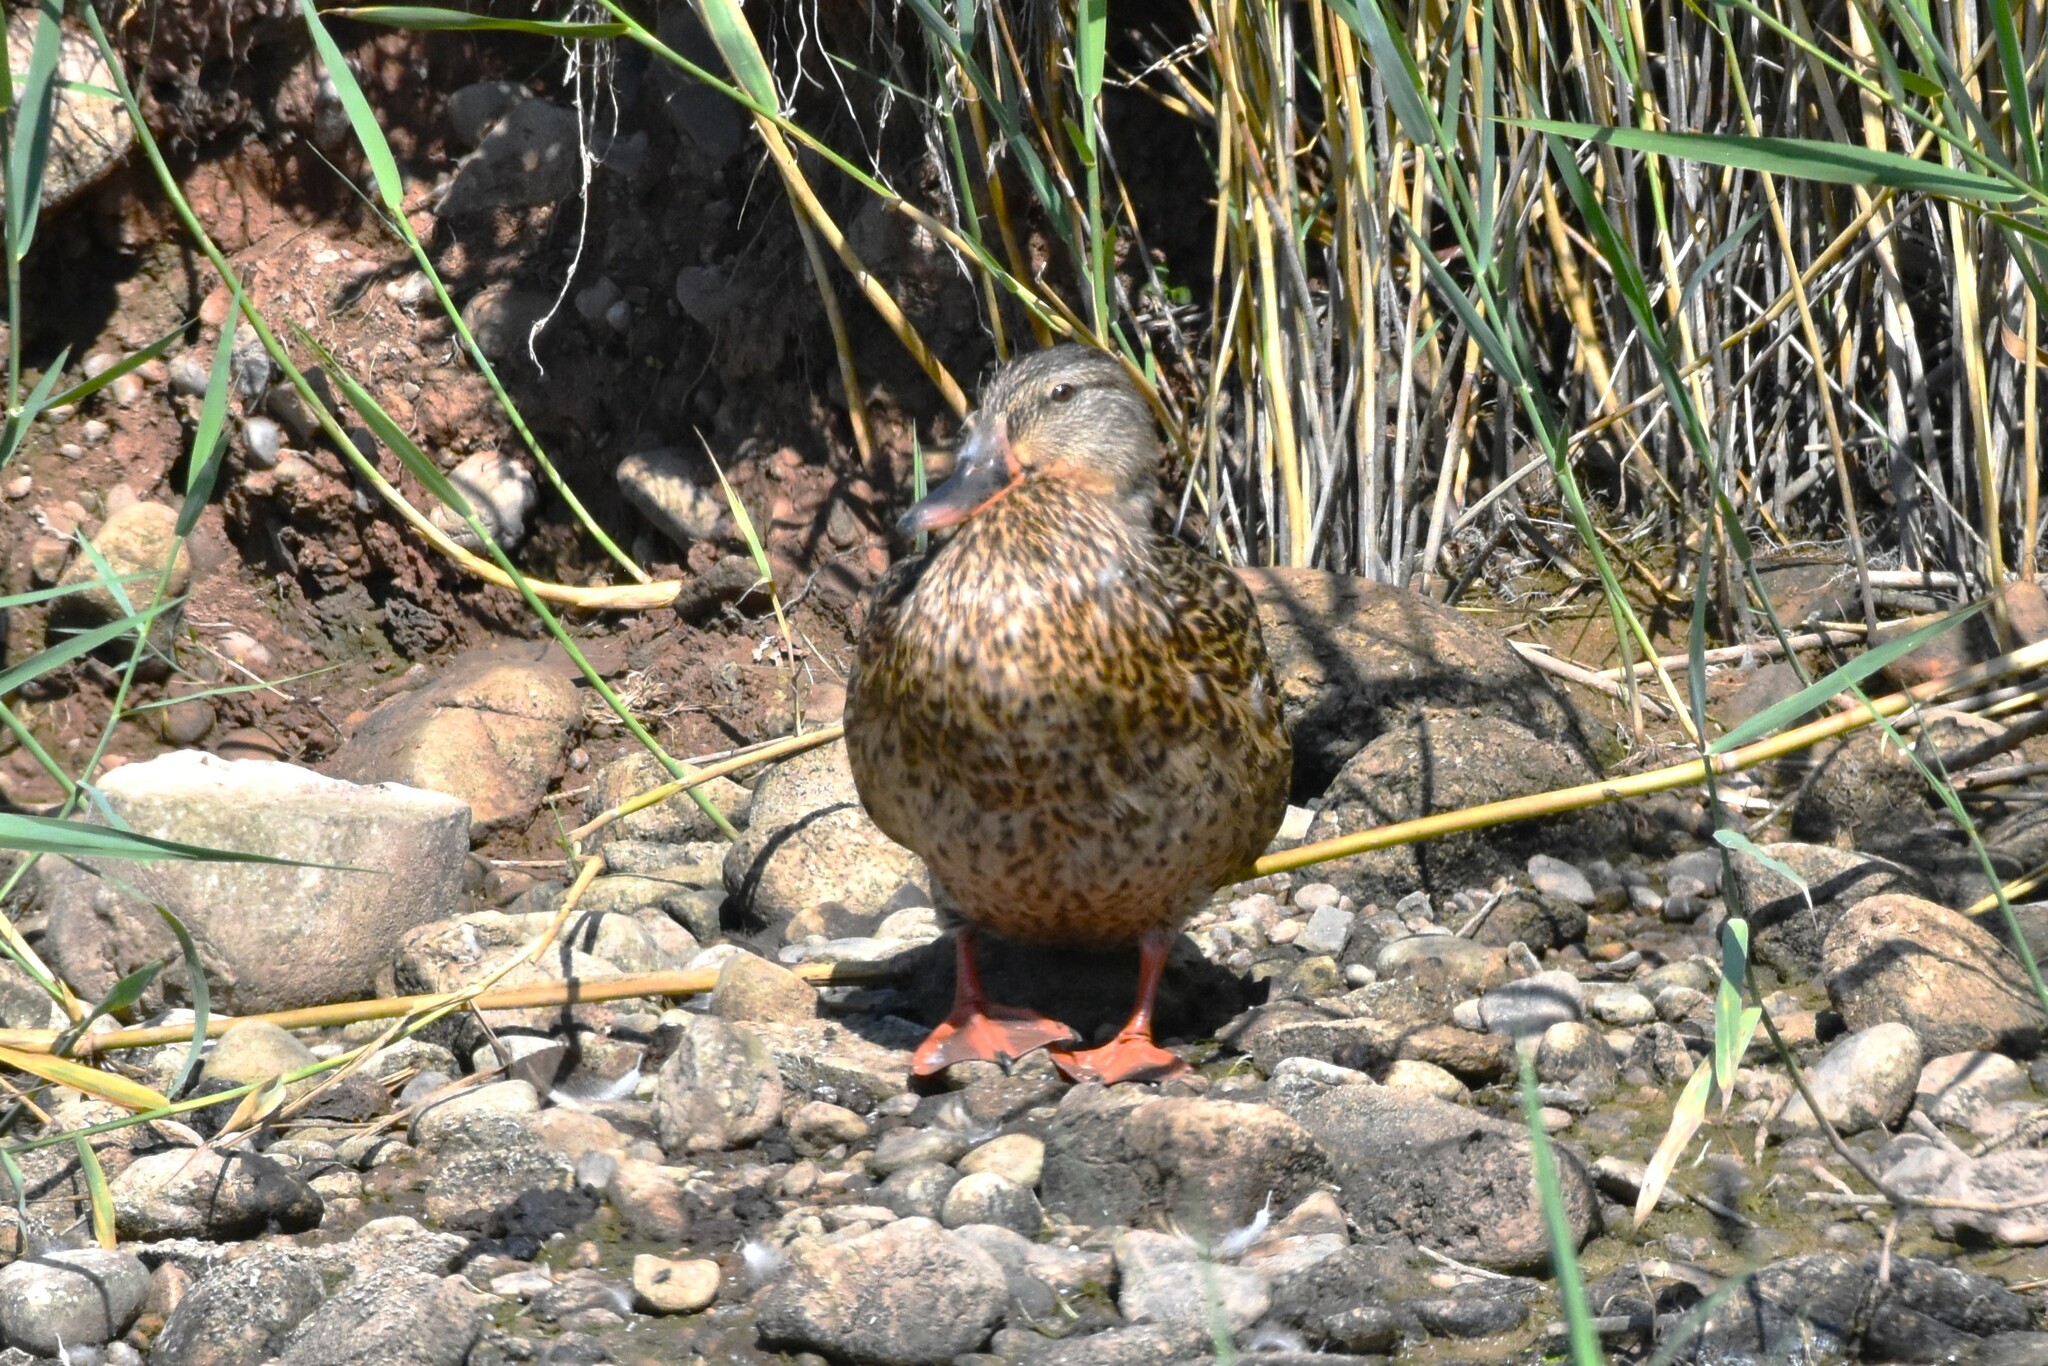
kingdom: Animalia
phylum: Chordata
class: Aves
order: Anseriformes
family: Anatidae
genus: Anas
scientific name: Anas platyrhynchos
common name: Mallard
